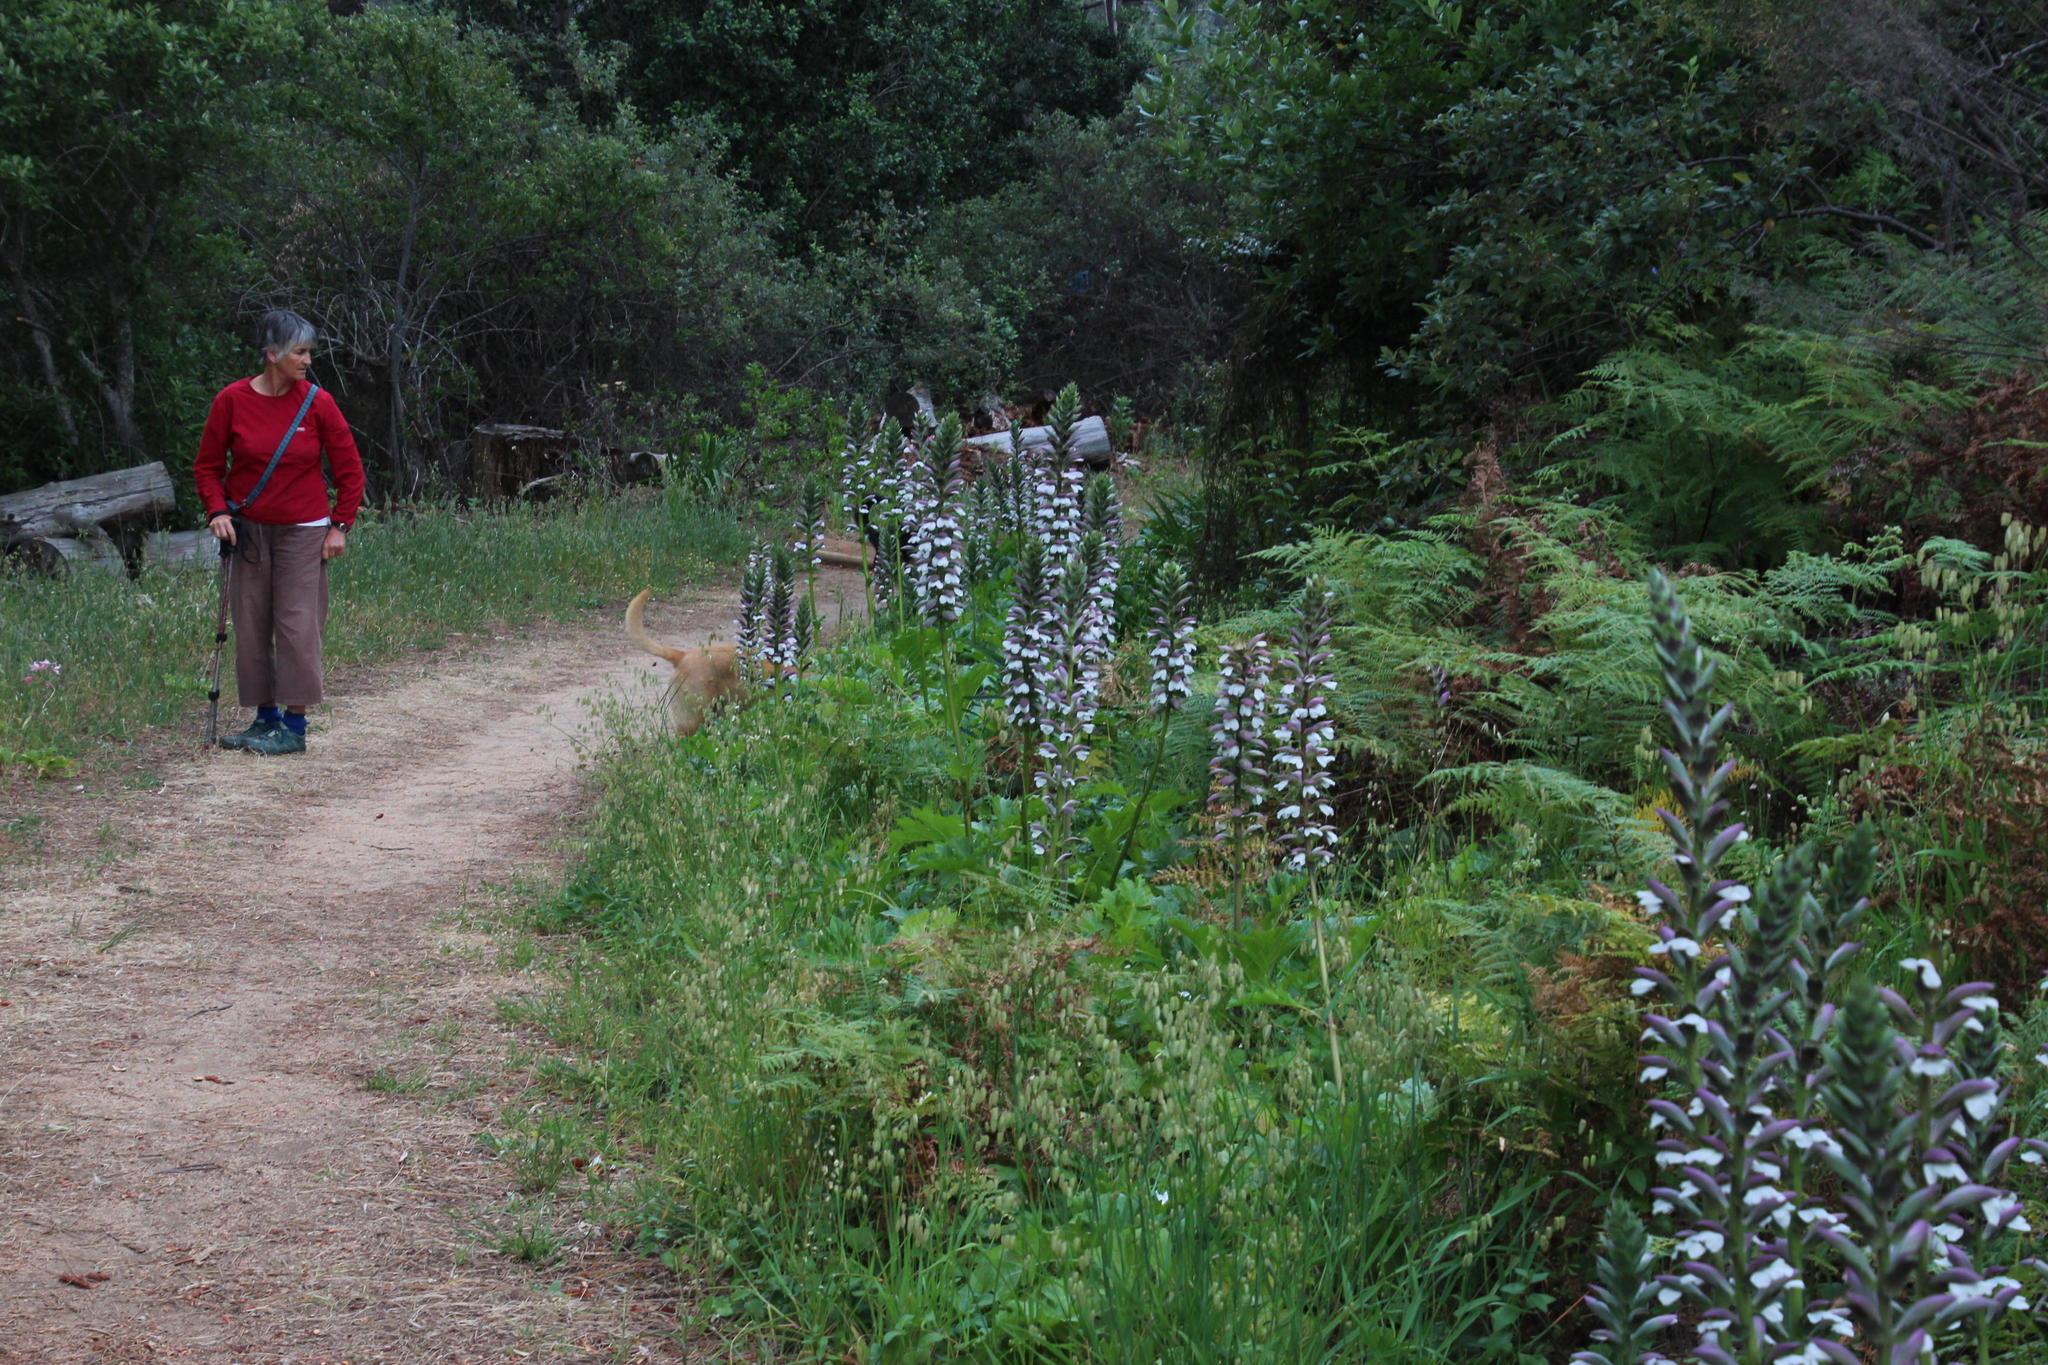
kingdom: Plantae
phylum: Tracheophyta
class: Magnoliopsida
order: Lamiales
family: Acanthaceae
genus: Acanthus
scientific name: Acanthus mollis
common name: Bear's-breech
